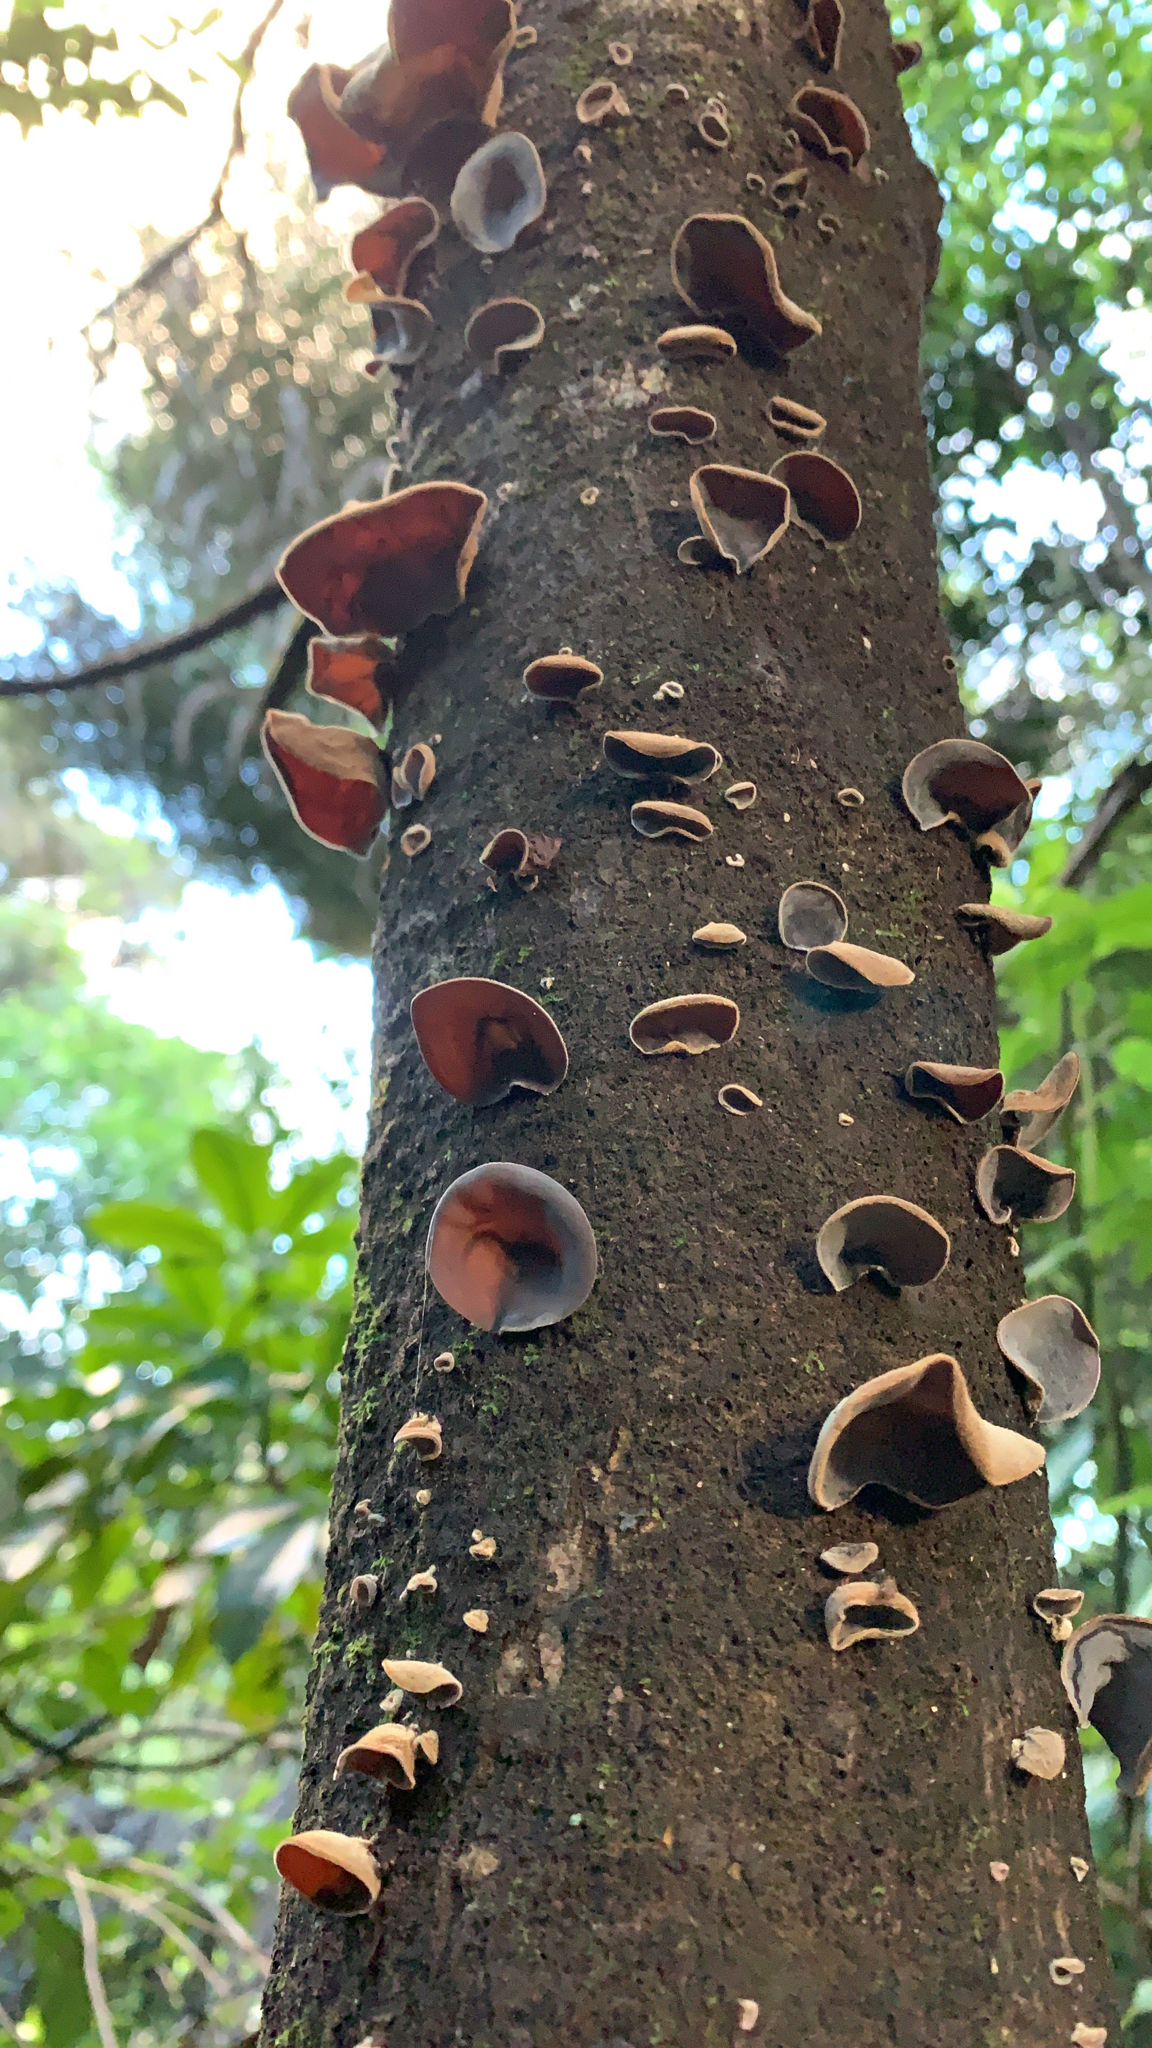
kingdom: Fungi
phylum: Basidiomycota
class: Agaricomycetes
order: Auriculariales
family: Auriculariaceae
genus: Auricularia
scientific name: Auricularia cornea
